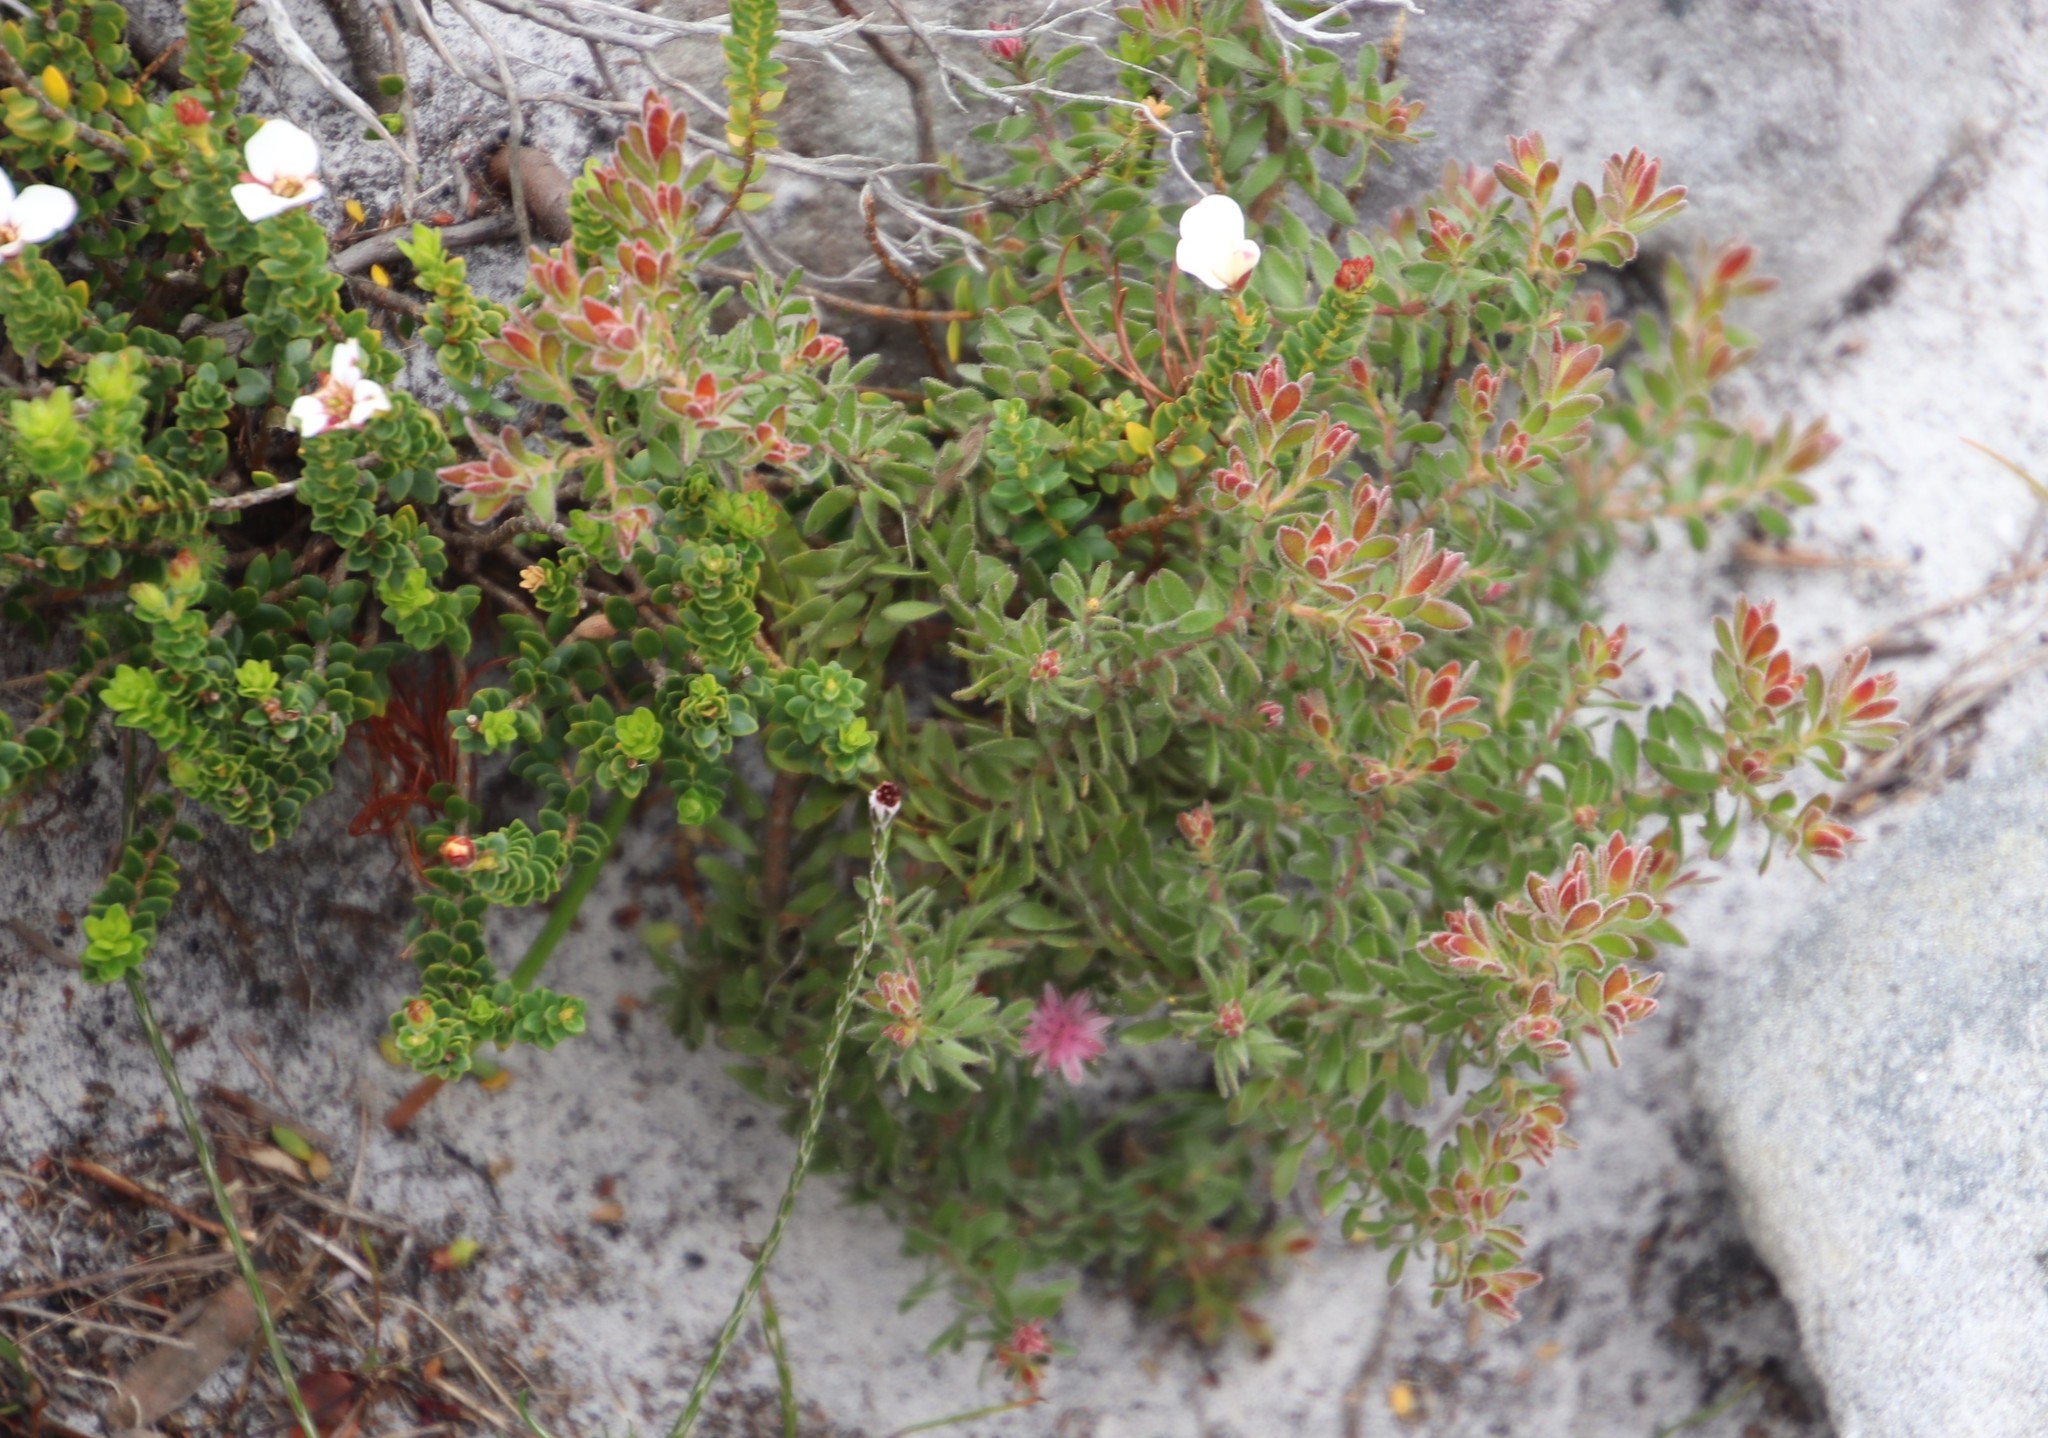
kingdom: Plantae
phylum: Tracheophyta
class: Magnoliopsida
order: Proteales
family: Proteaceae
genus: Diastella
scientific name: Diastella divaricata
